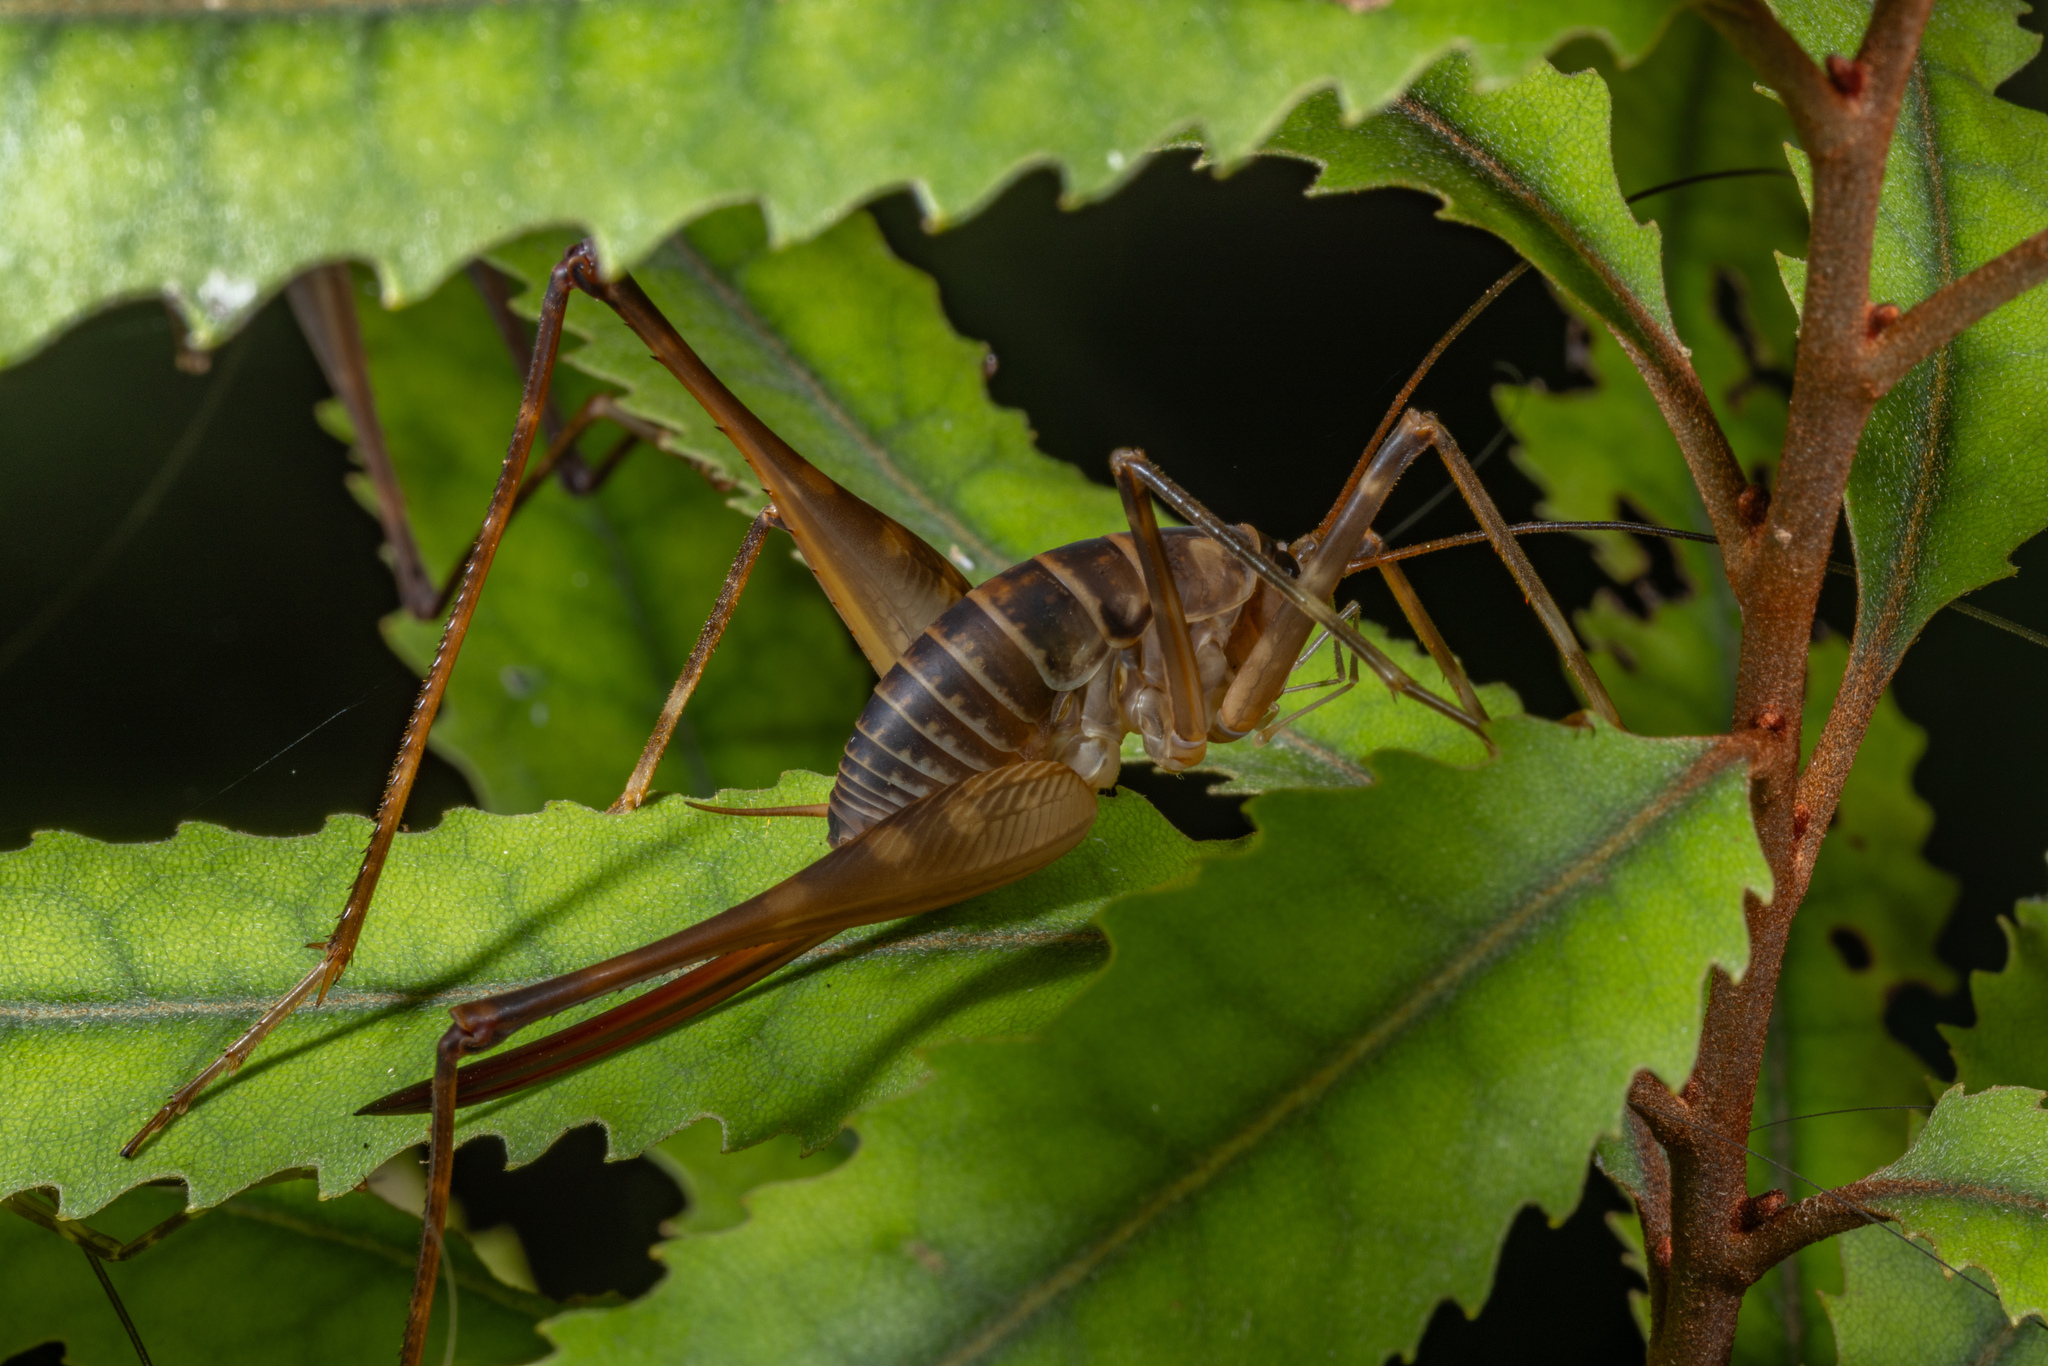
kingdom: Animalia
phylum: Arthropoda
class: Insecta
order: Orthoptera
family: Rhaphidophoridae
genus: Pachyrhamma
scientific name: Pachyrhamma acanthocera
